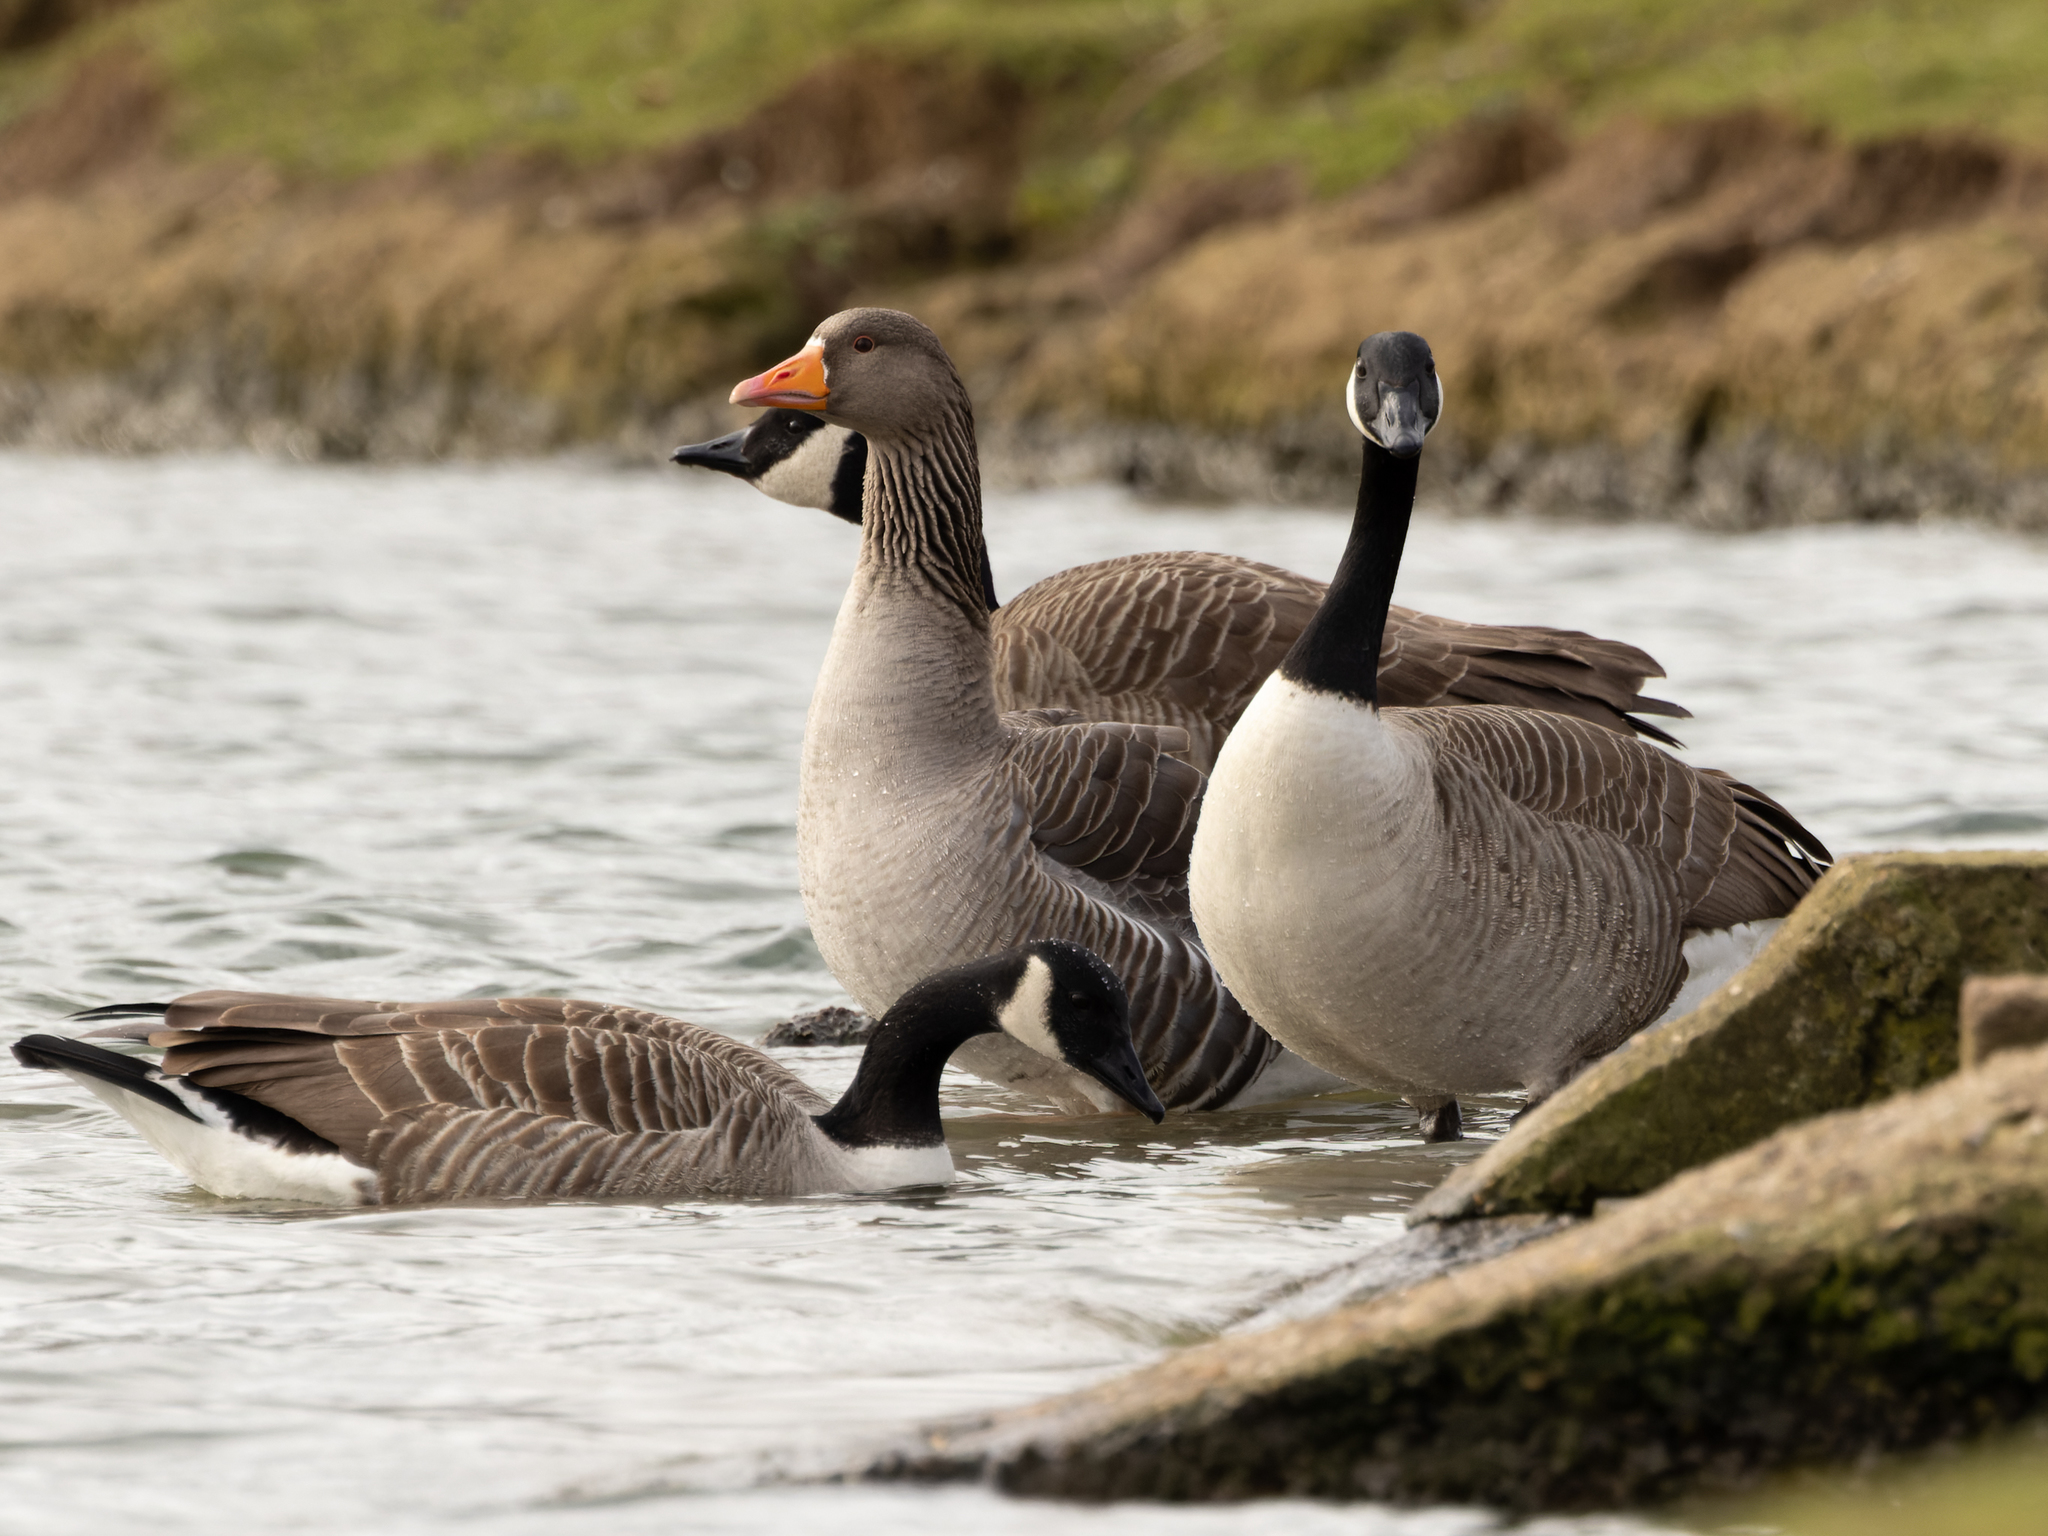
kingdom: Animalia
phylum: Chordata
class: Aves
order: Anseriformes
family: Anatidae
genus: Anser
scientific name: Anser anser
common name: Greylag goose
